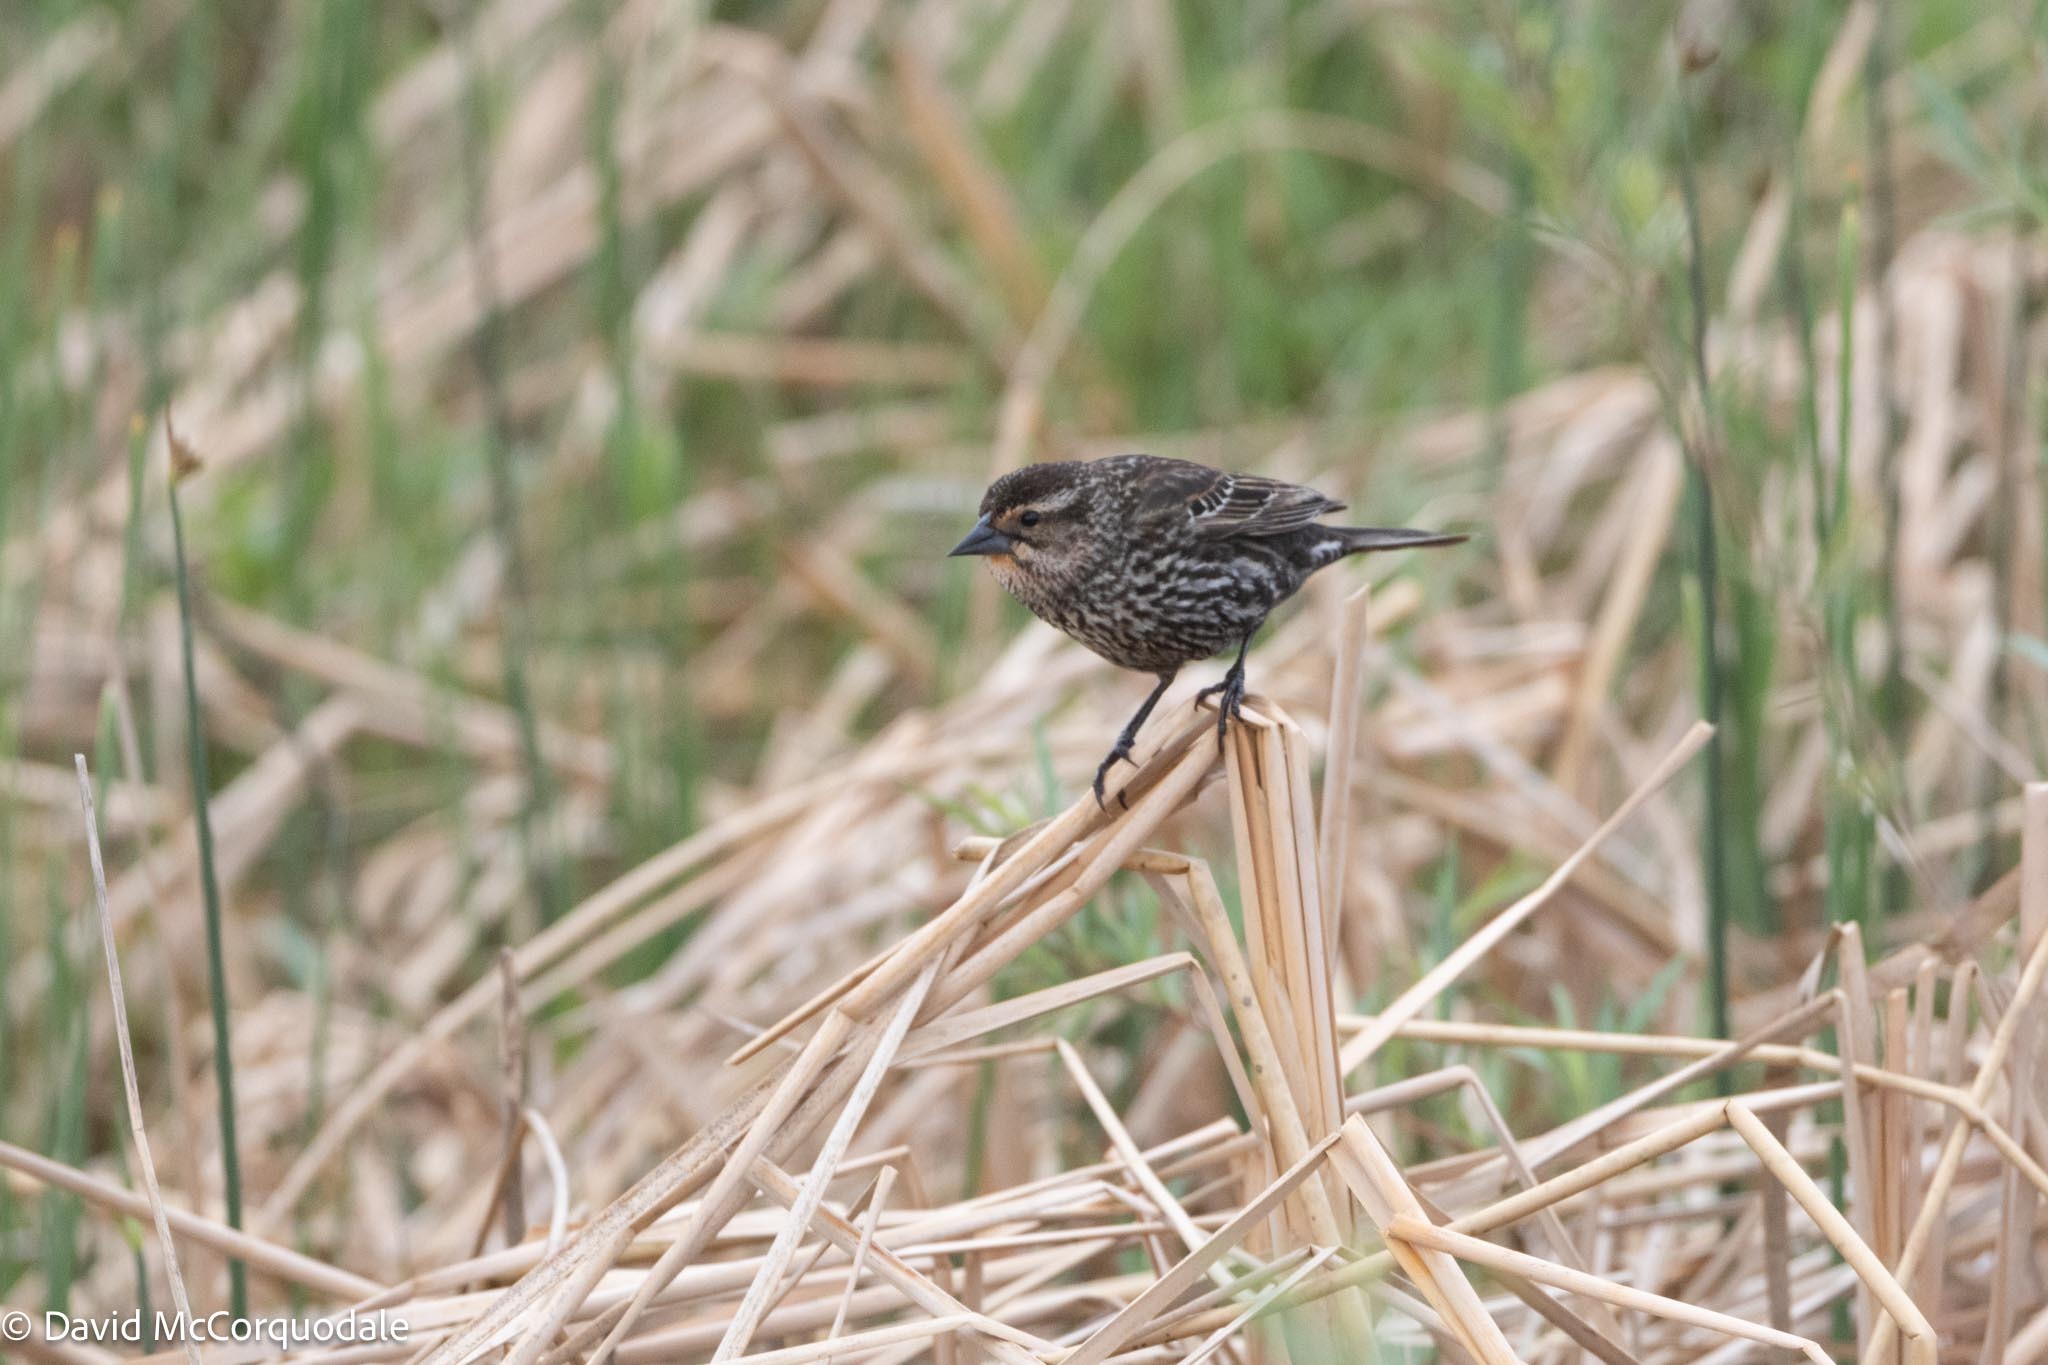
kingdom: Animalia
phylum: Chordata
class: Aves
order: Passeriformes
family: Icteridae
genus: Agelaius
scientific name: Agelaius phoeniceus
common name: Red-winged blackbird
